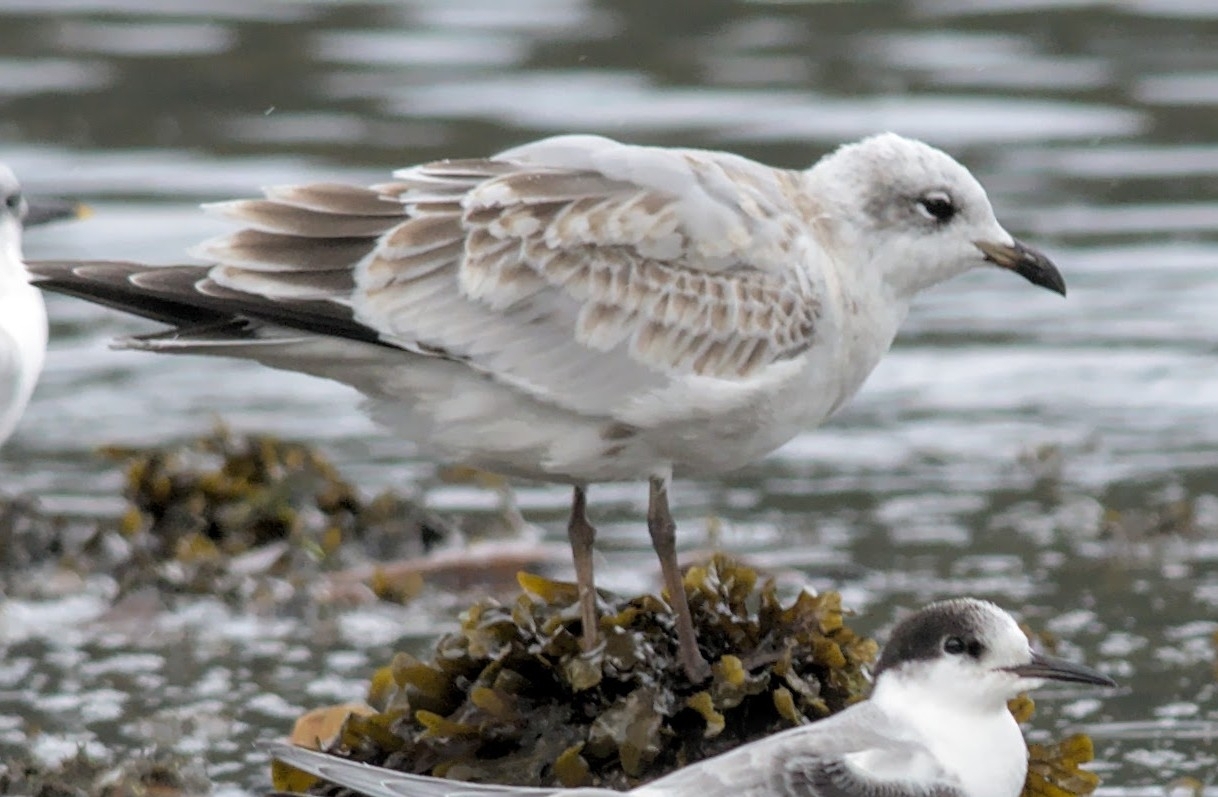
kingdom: Animalia
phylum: Chordata
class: Aves
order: Charadriiformes
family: Laridae
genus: Ichthyaetus
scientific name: Ichthyaetus melanocephalus
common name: Mediterranean gull
